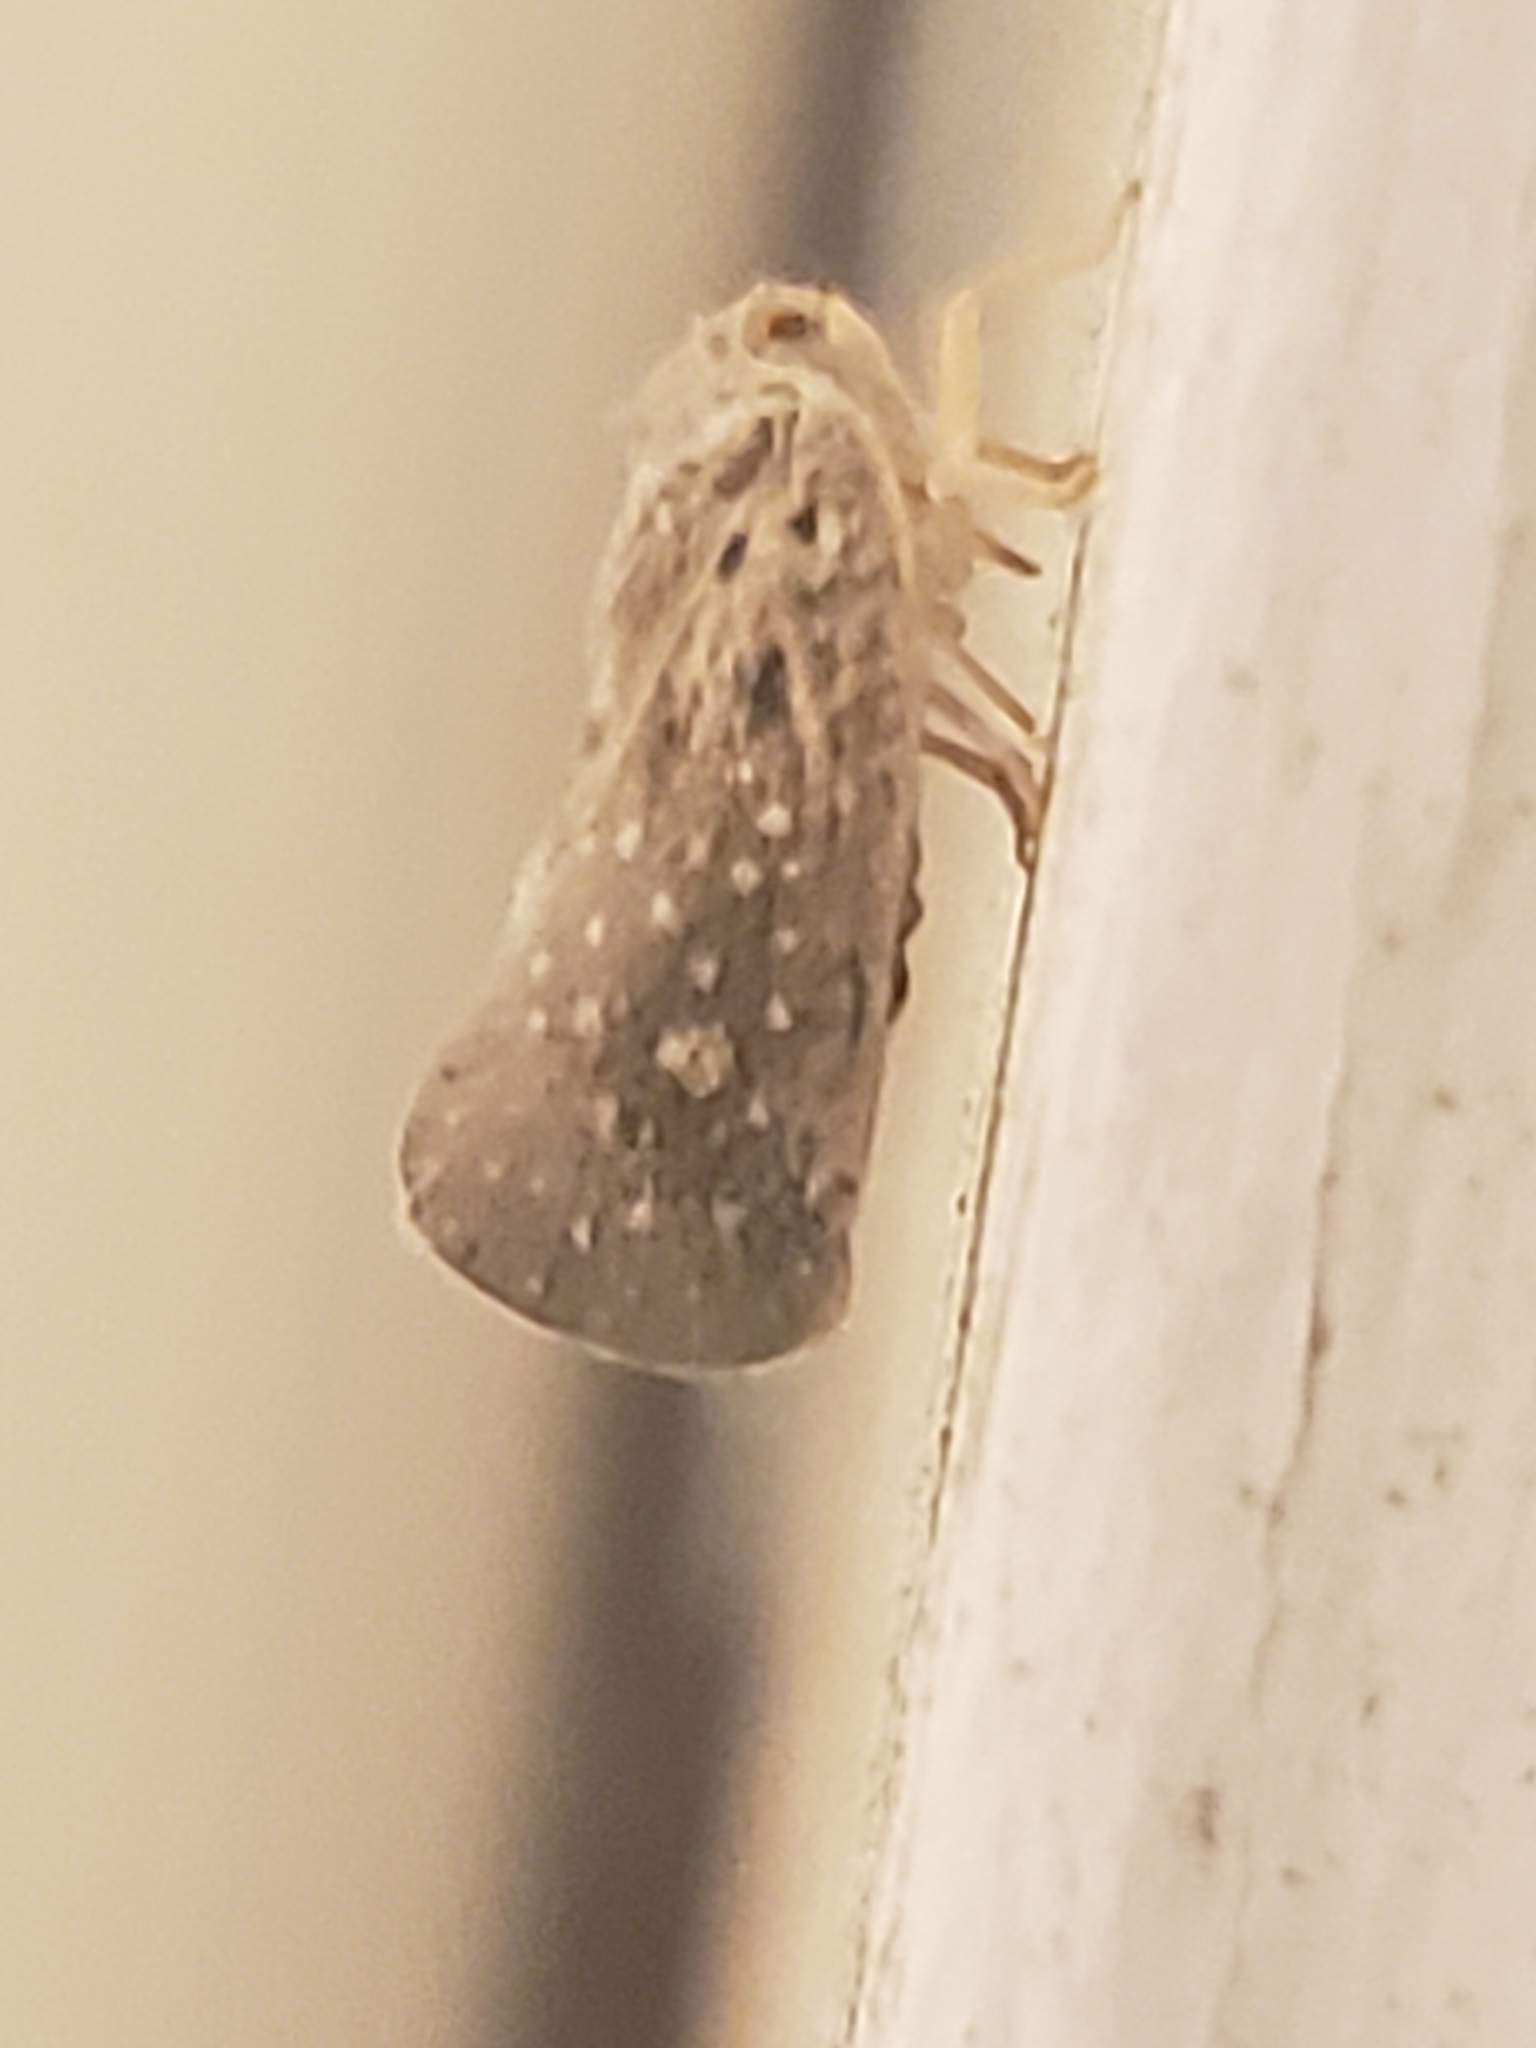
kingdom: Animalia
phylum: Arthropoda
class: Insecta
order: Hemiptera
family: Flatidae
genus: Metcalfa
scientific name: Metcalfa pruinosa
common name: Citrus flatid planthopper
